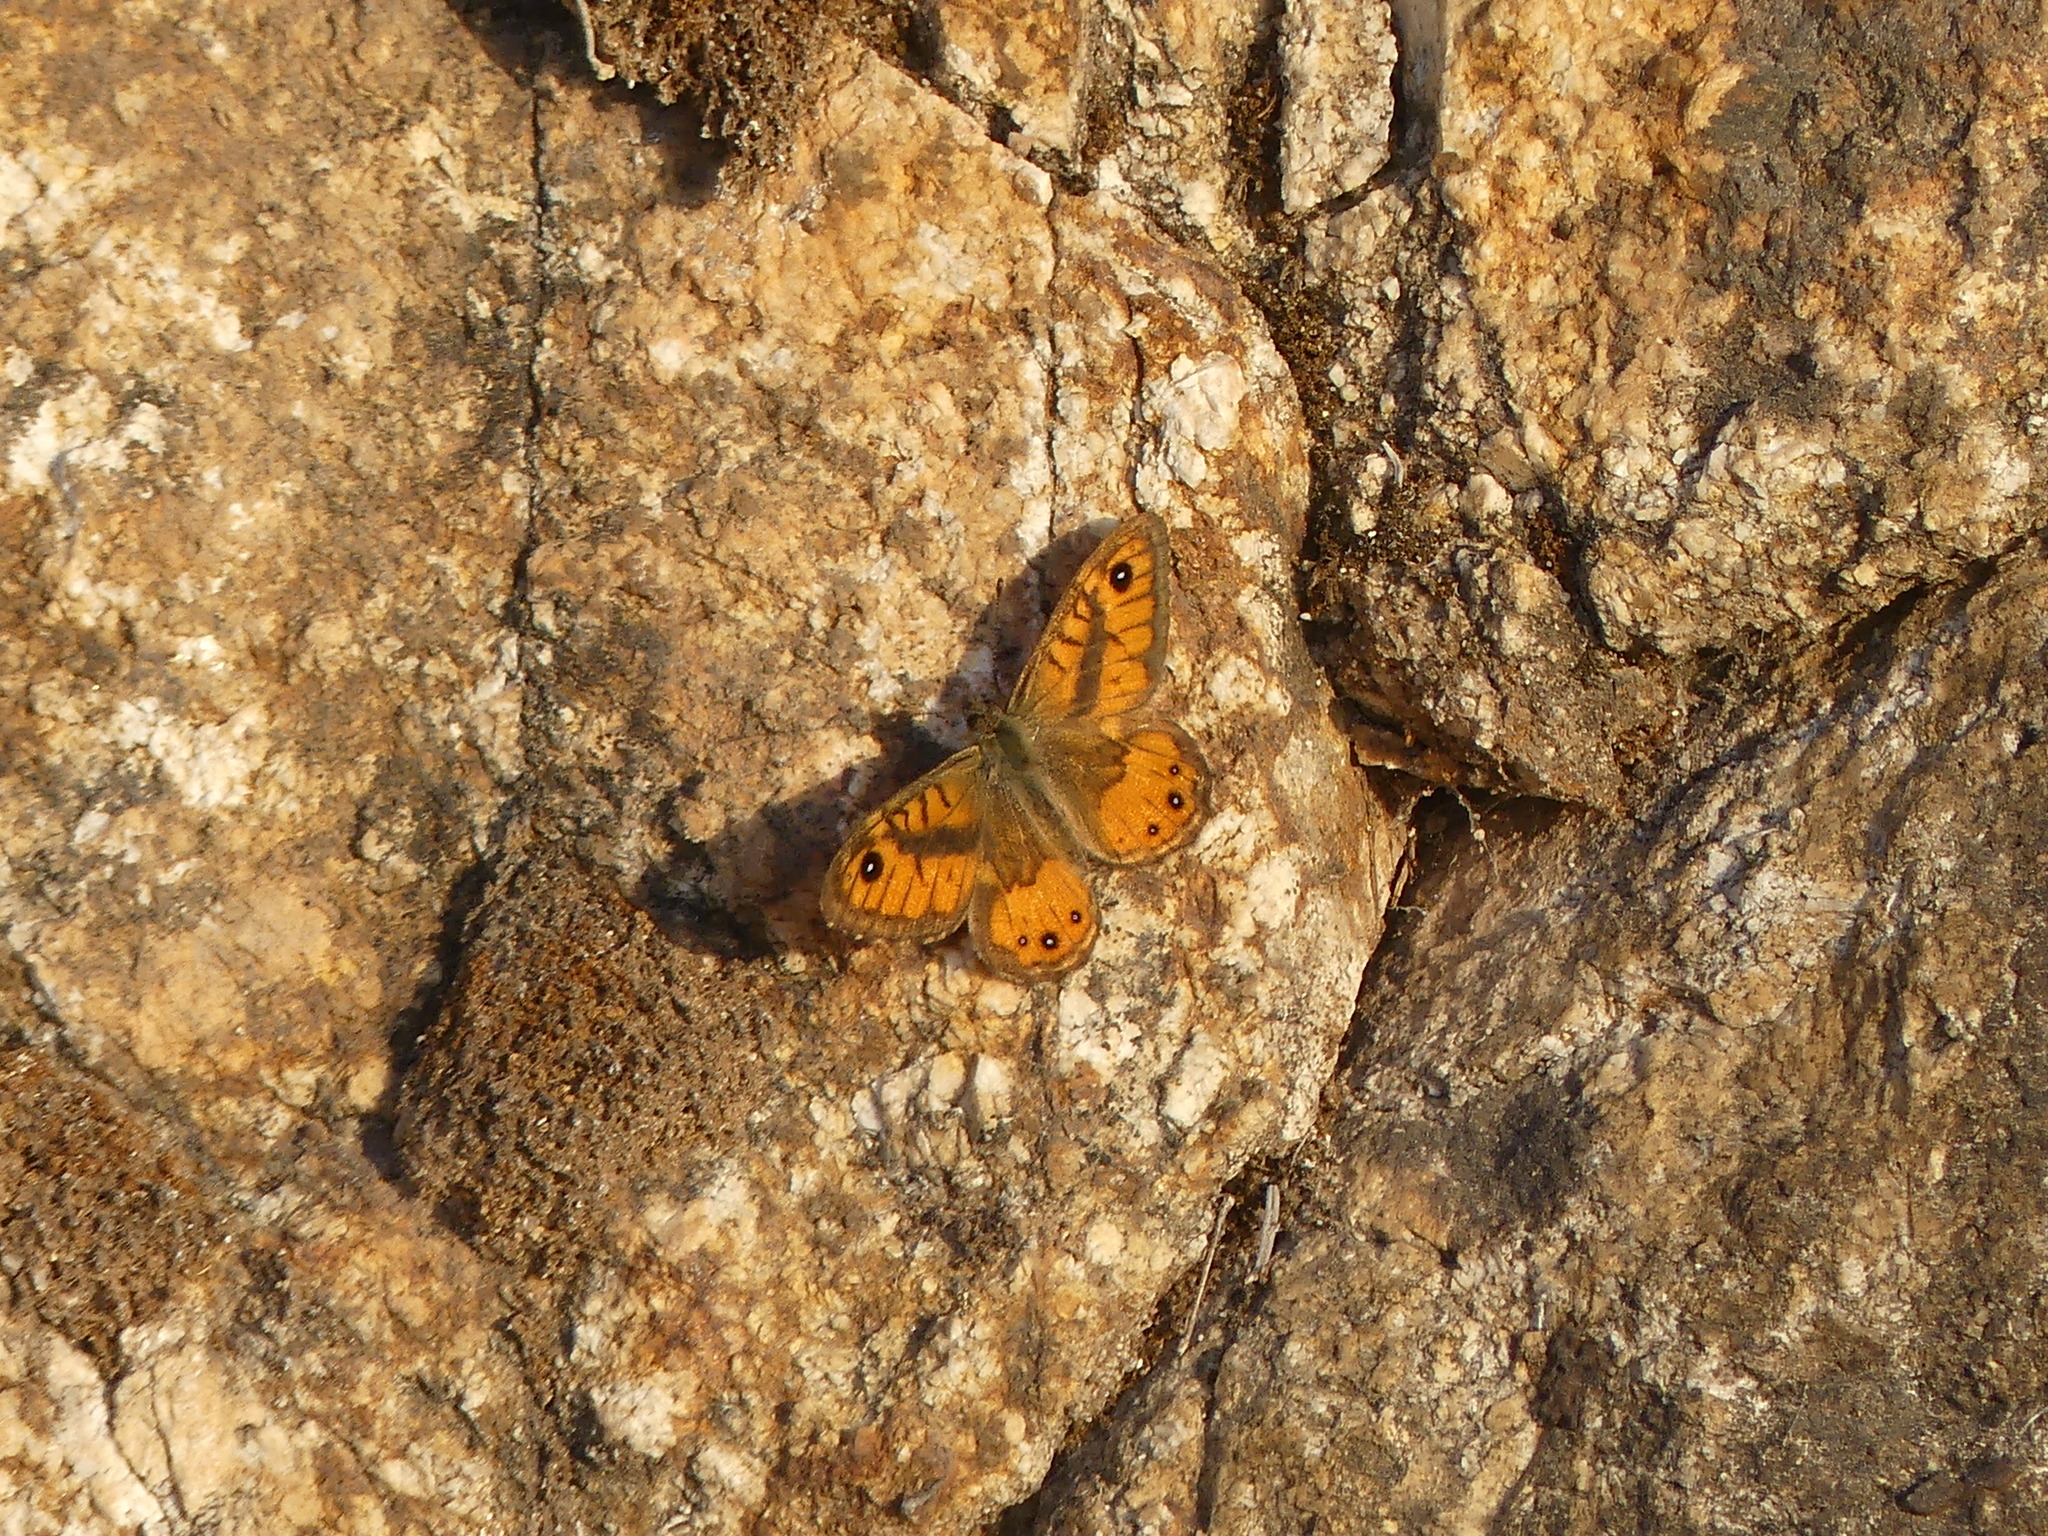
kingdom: Animalia
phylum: Arthropoda
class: Insecta
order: Lepidoptera
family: Nymphalidae
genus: Pararge
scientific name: Pararge Lasiommata paramegaera
